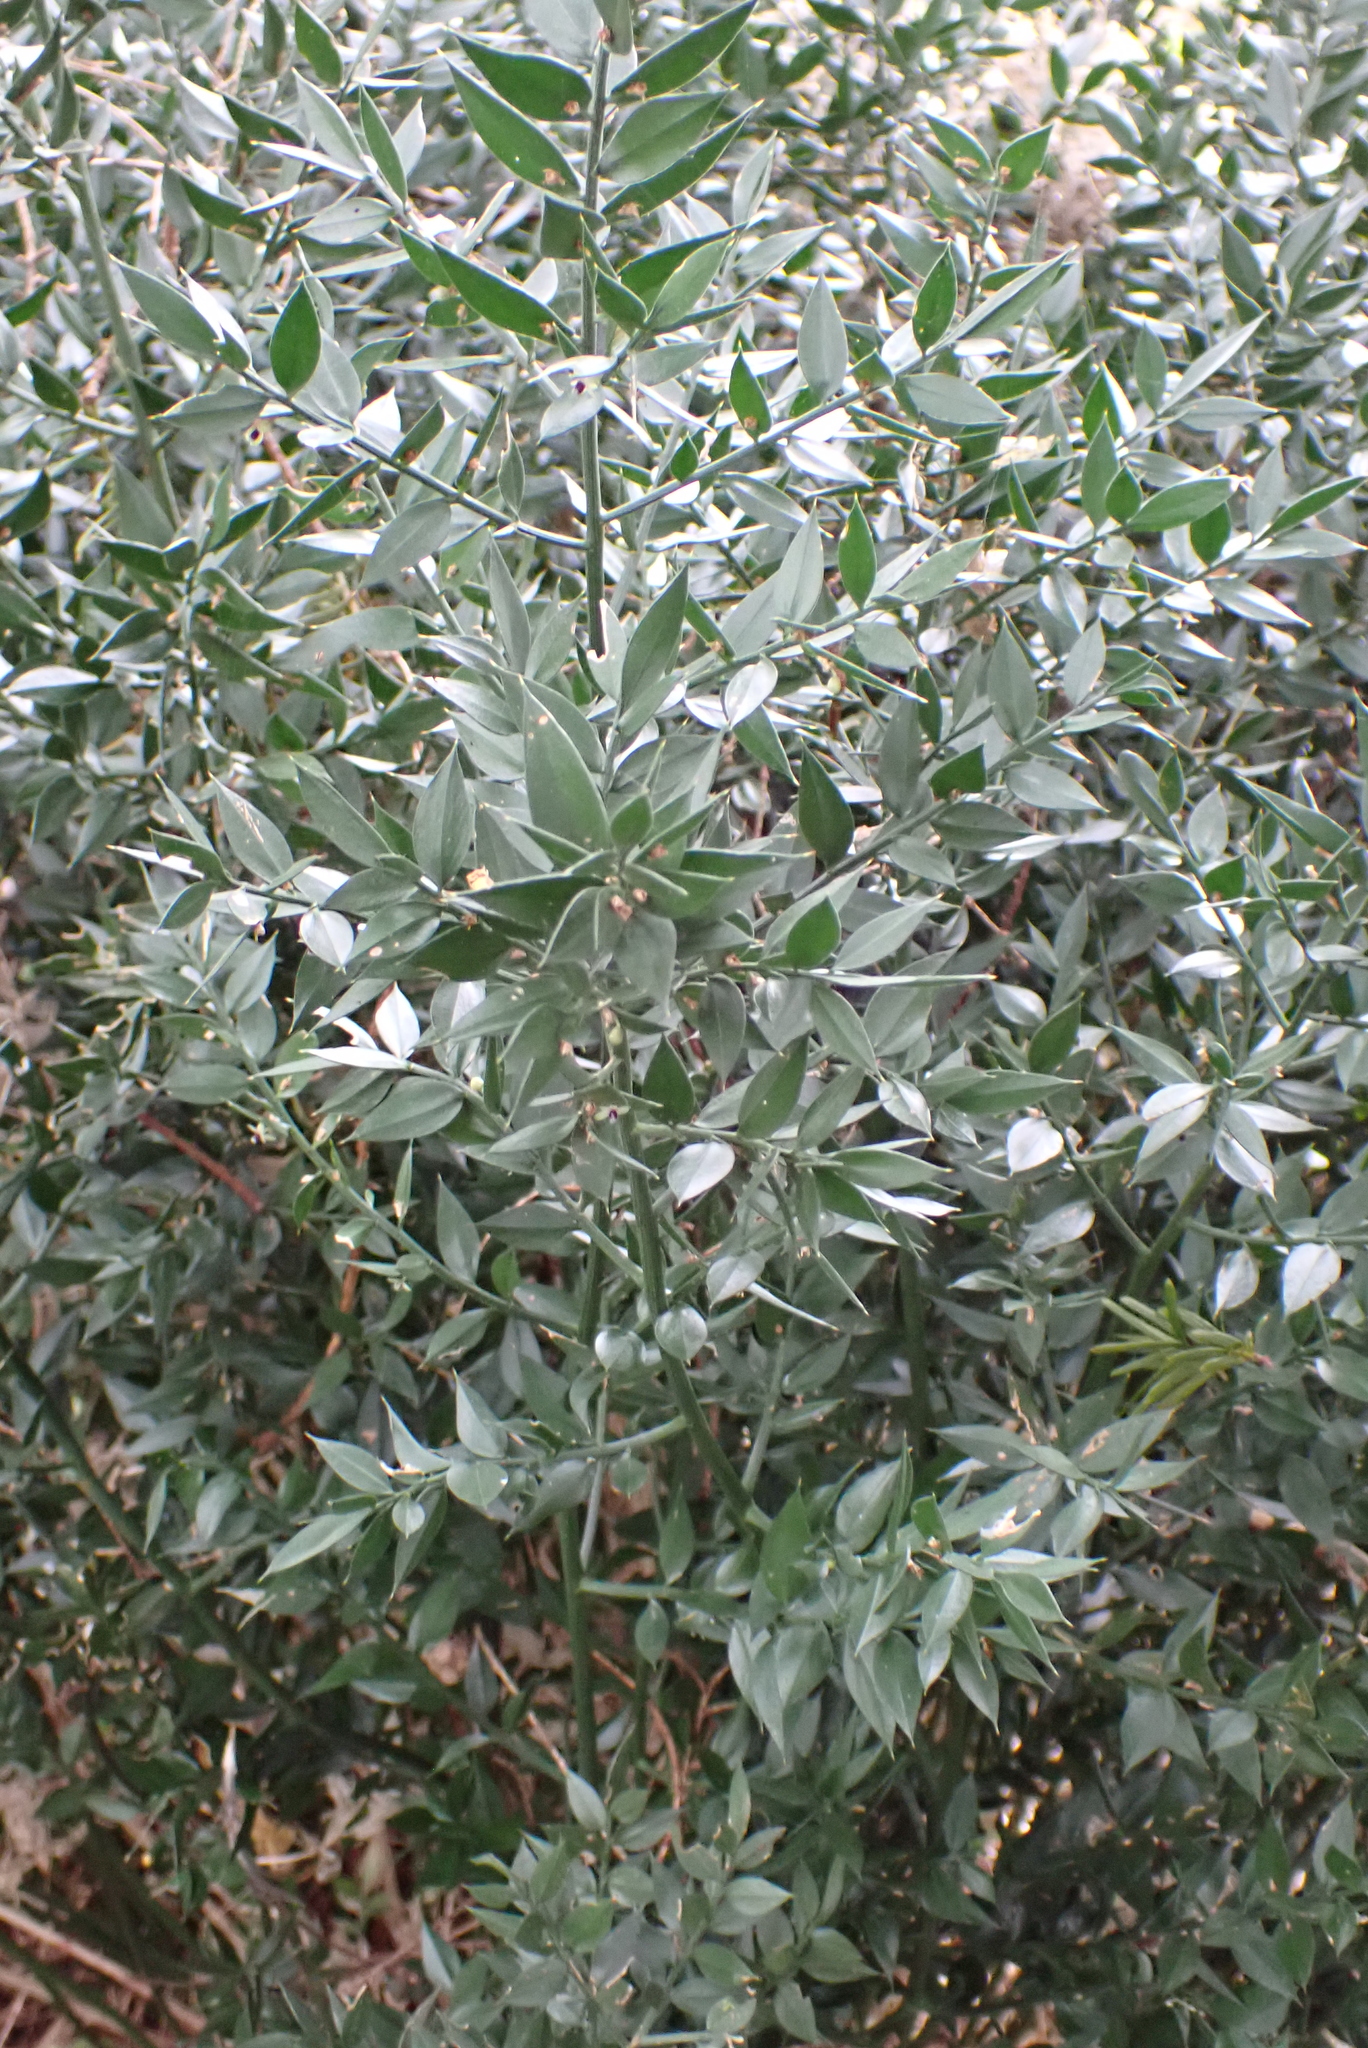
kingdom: Plantae
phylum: Tracheophyta
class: Liliopsida
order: Asparagales
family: Asparagaceae
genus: Ruscus
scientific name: Ruscus aculeatus
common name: Butcher's-broom
